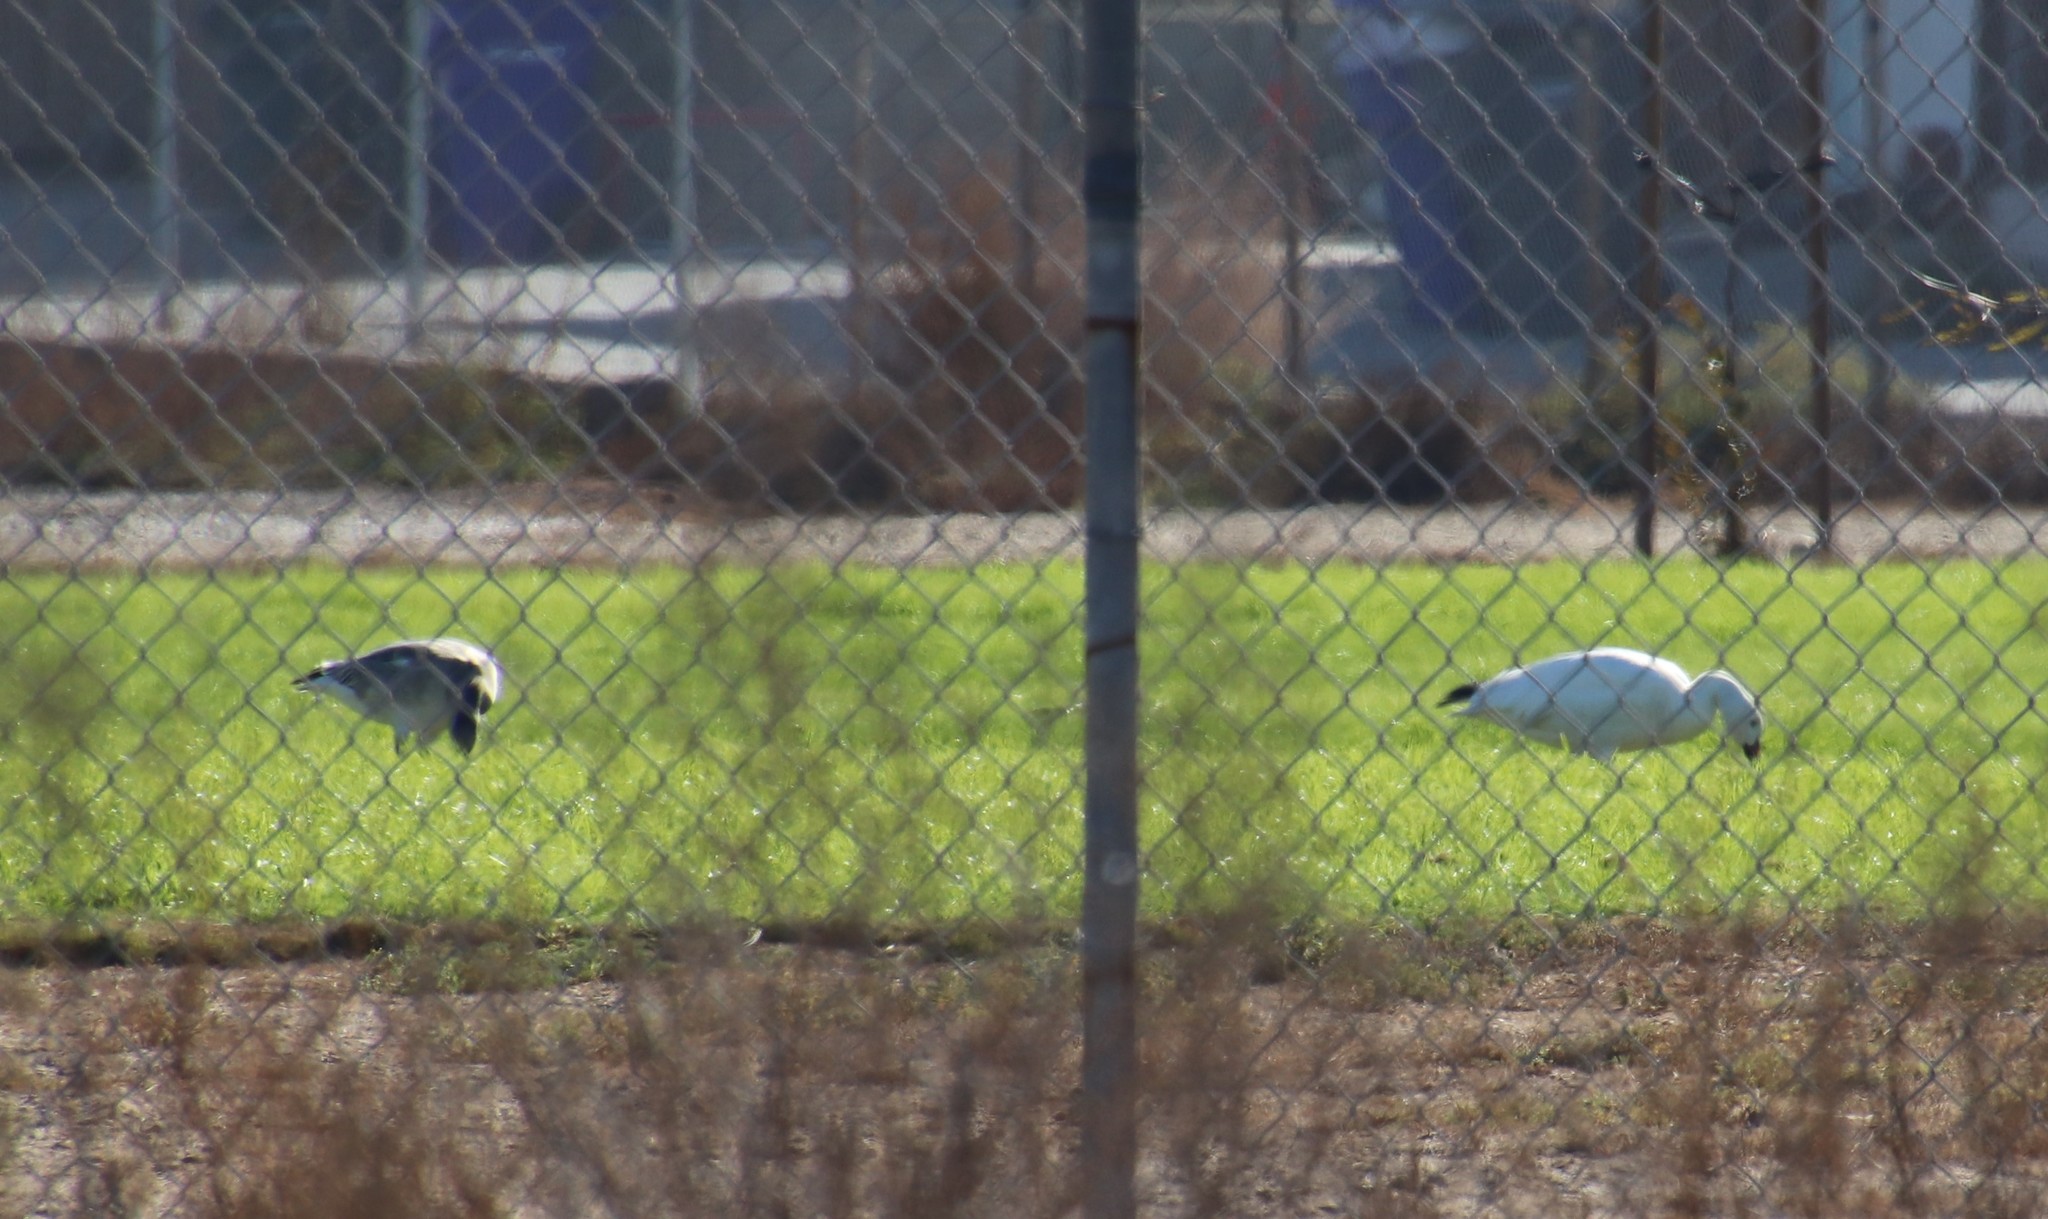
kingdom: Animalia
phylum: Chordata
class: Aves
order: Anseriformes
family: Anatidae
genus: Anser
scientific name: Anser caerulescens
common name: Snow goose
